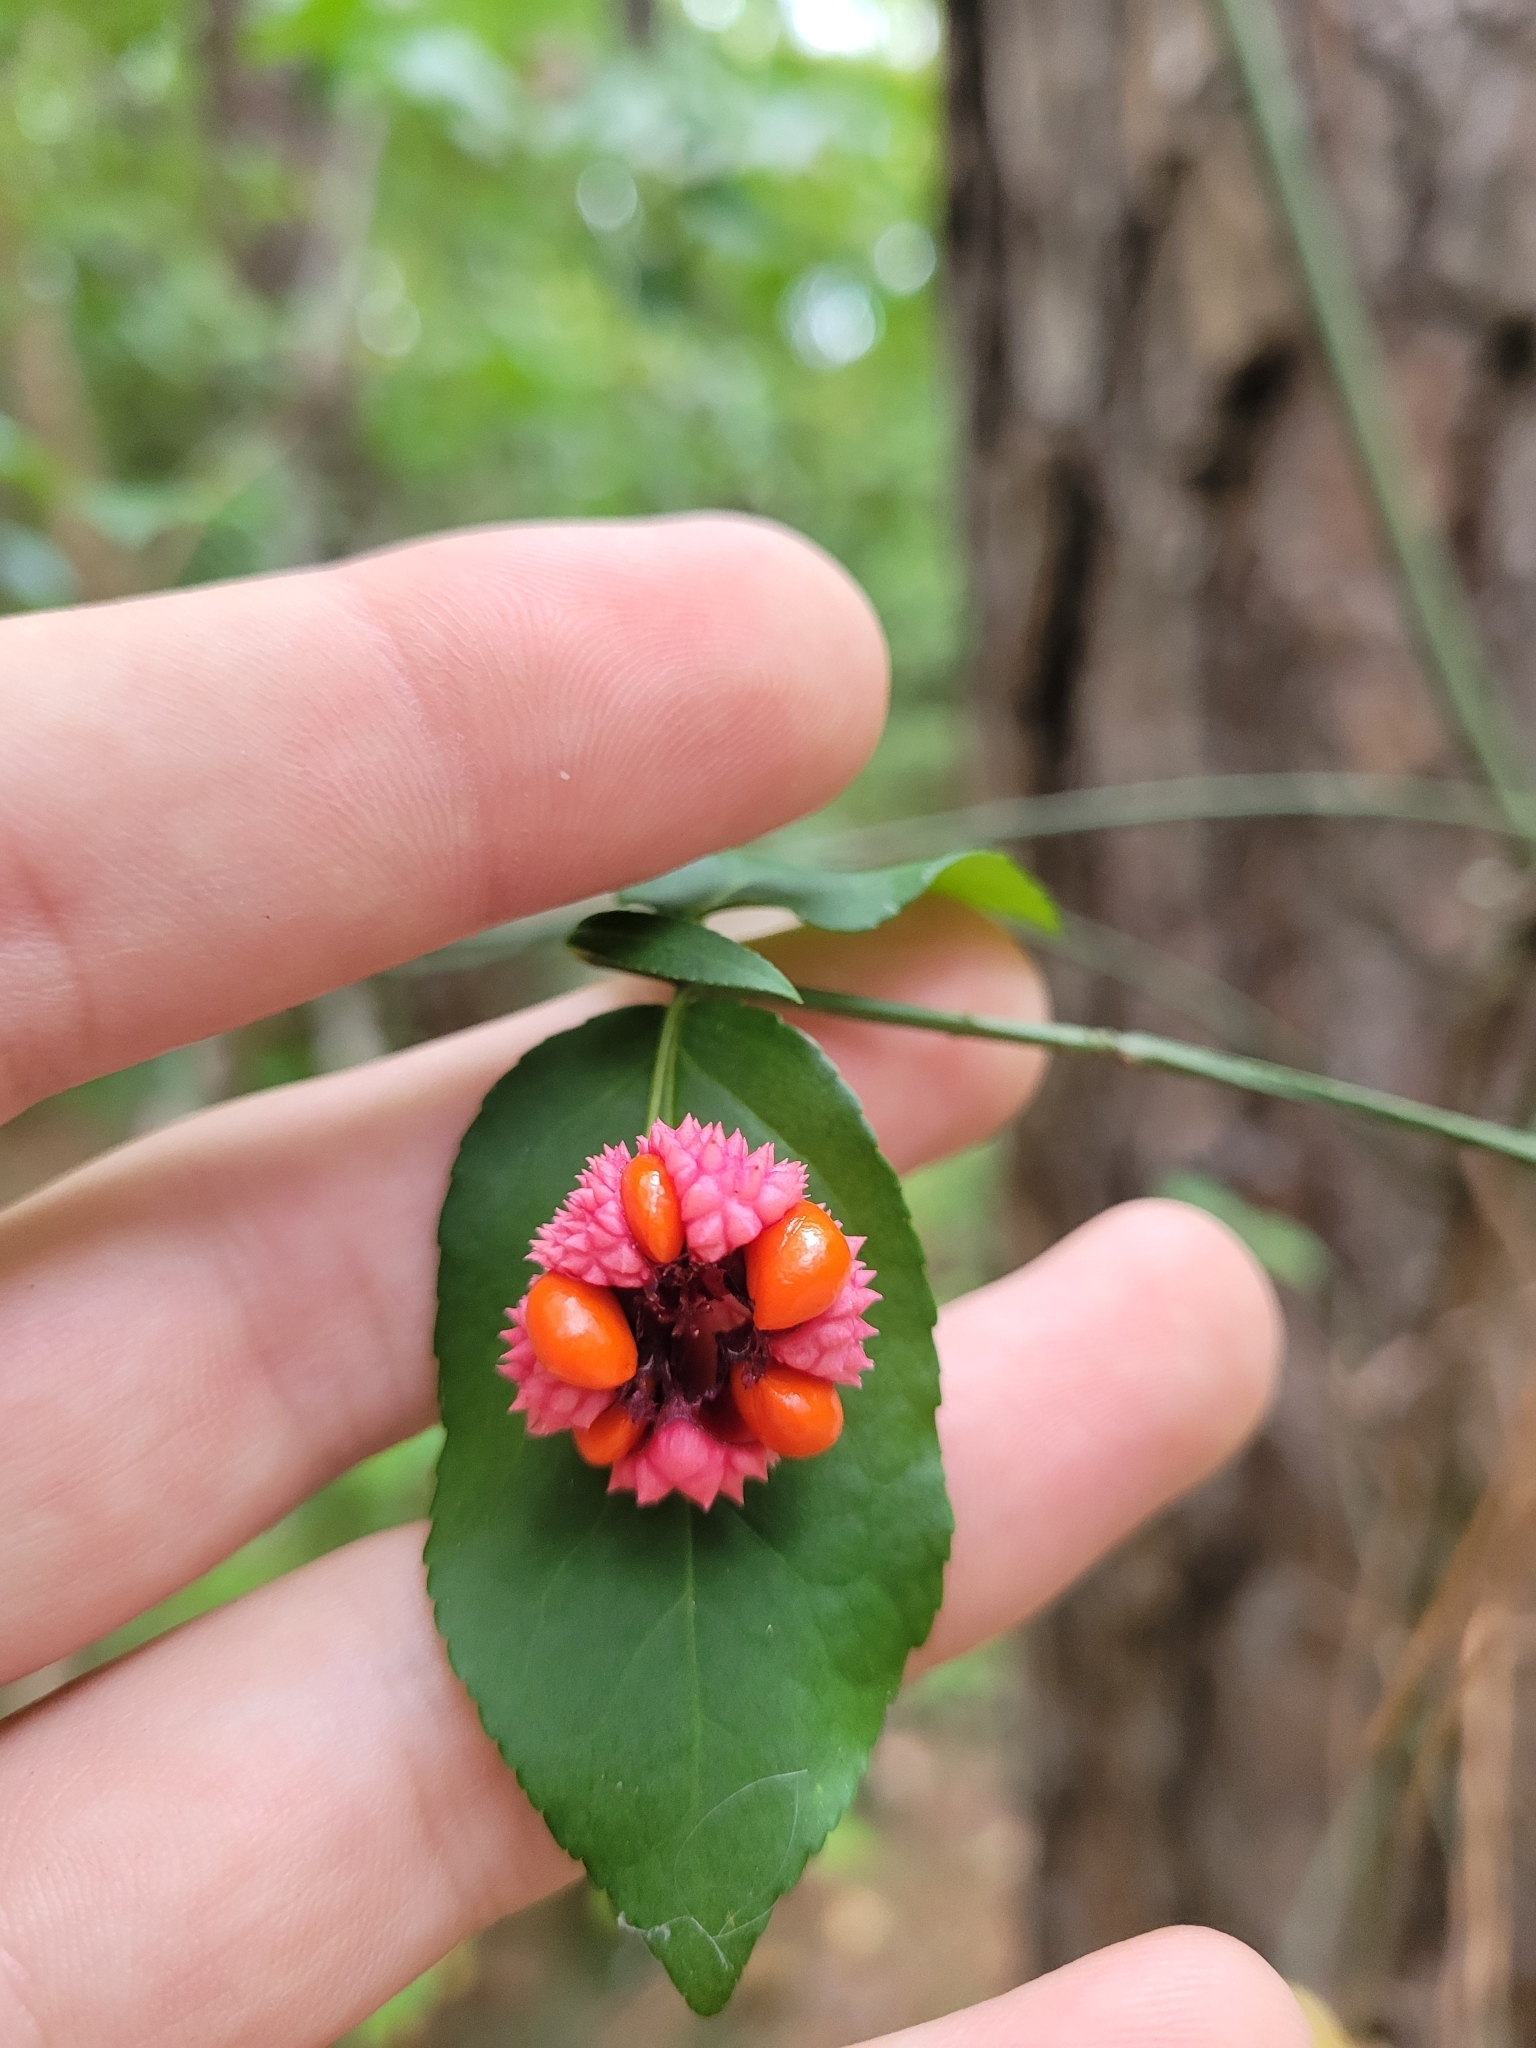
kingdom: Plantae
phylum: Tracheophyta
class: Magnoliopsida
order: Celastrales
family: Celastraceae
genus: Euonymus
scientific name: Euonymus americanus
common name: Bursting-heart
